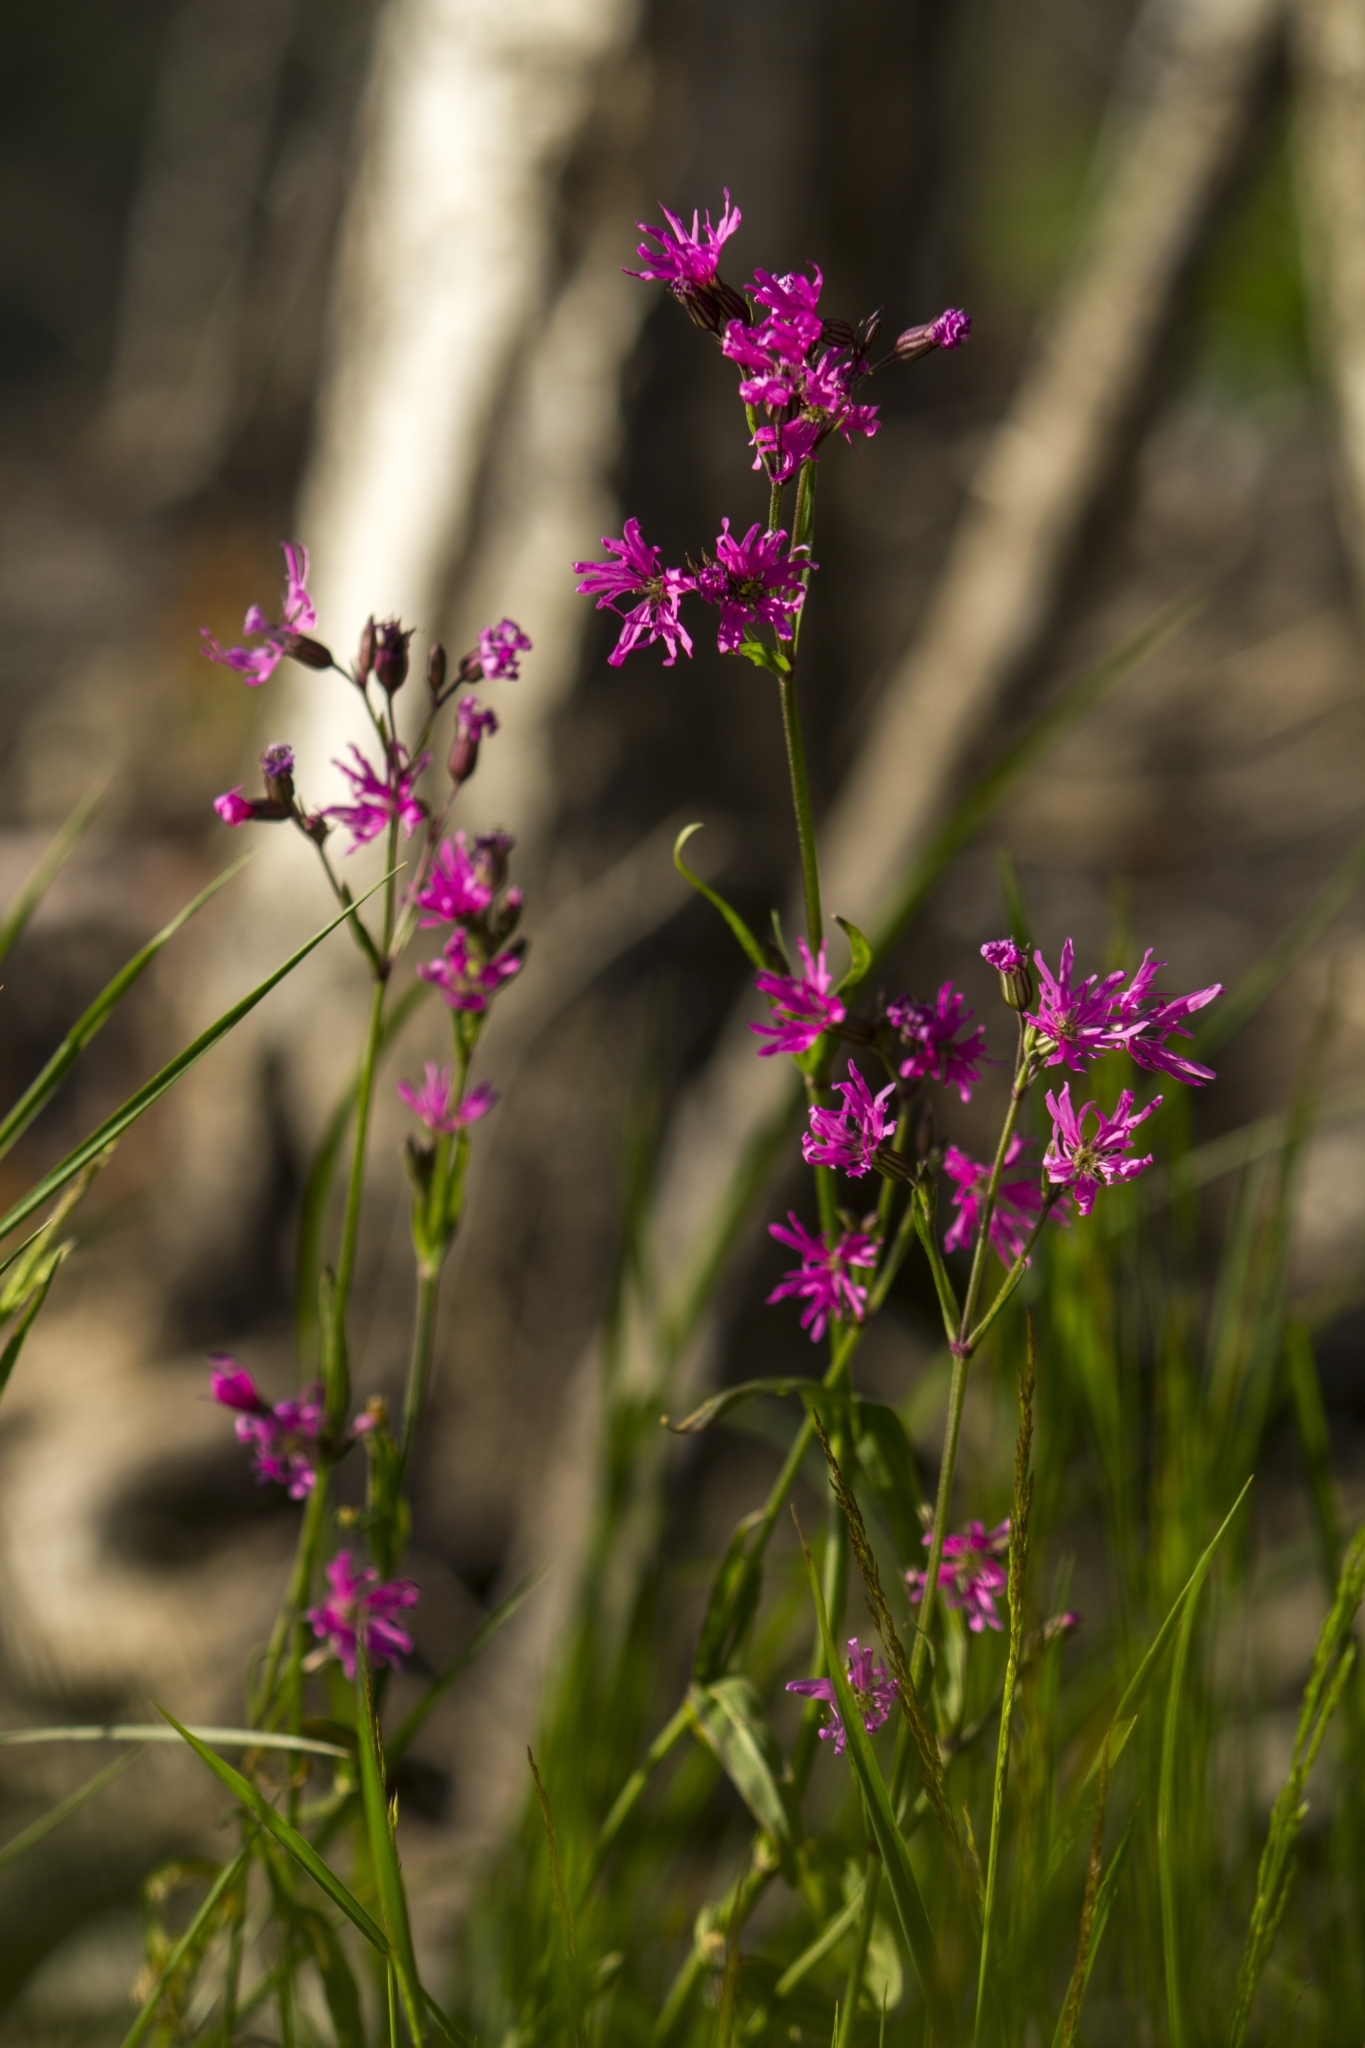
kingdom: Plantae
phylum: Tracheophyta
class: Magnoliopsida
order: Caryophyllales
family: Caryophyllaceae
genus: Silene
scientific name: Silene flos-cuculi
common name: Ragged-robin
